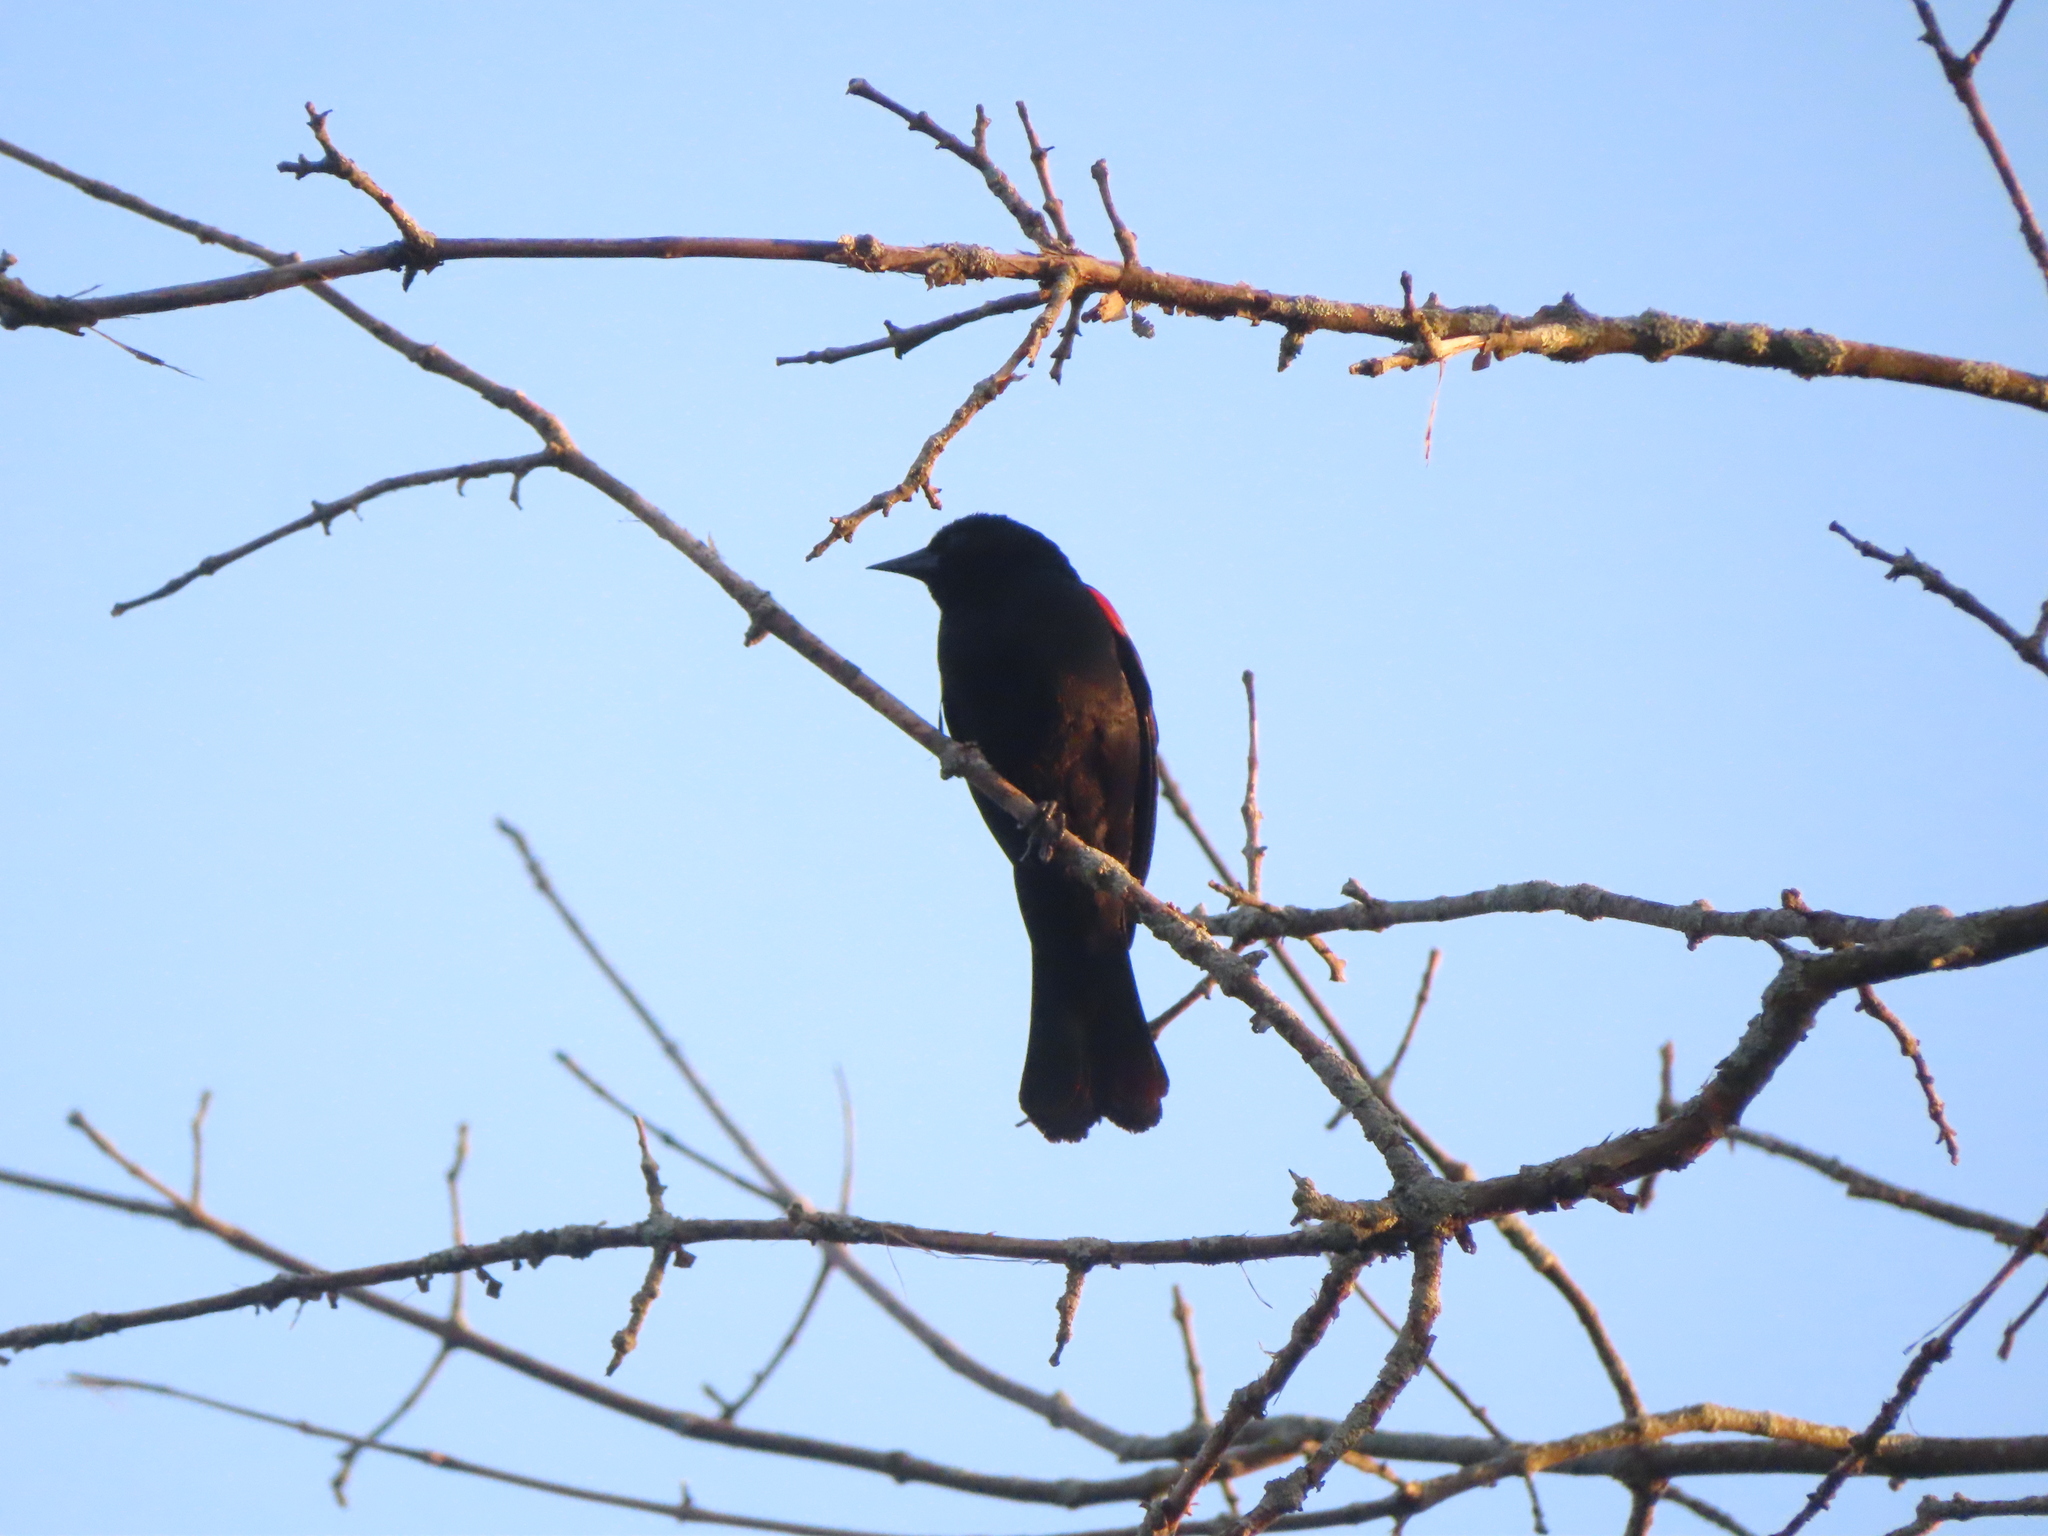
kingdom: Animalia
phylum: Chordata
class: Aves
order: Passeriformes
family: Icteridae
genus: Agelaius
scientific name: Agelaius phoeniceus
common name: Red-winged blackbird
